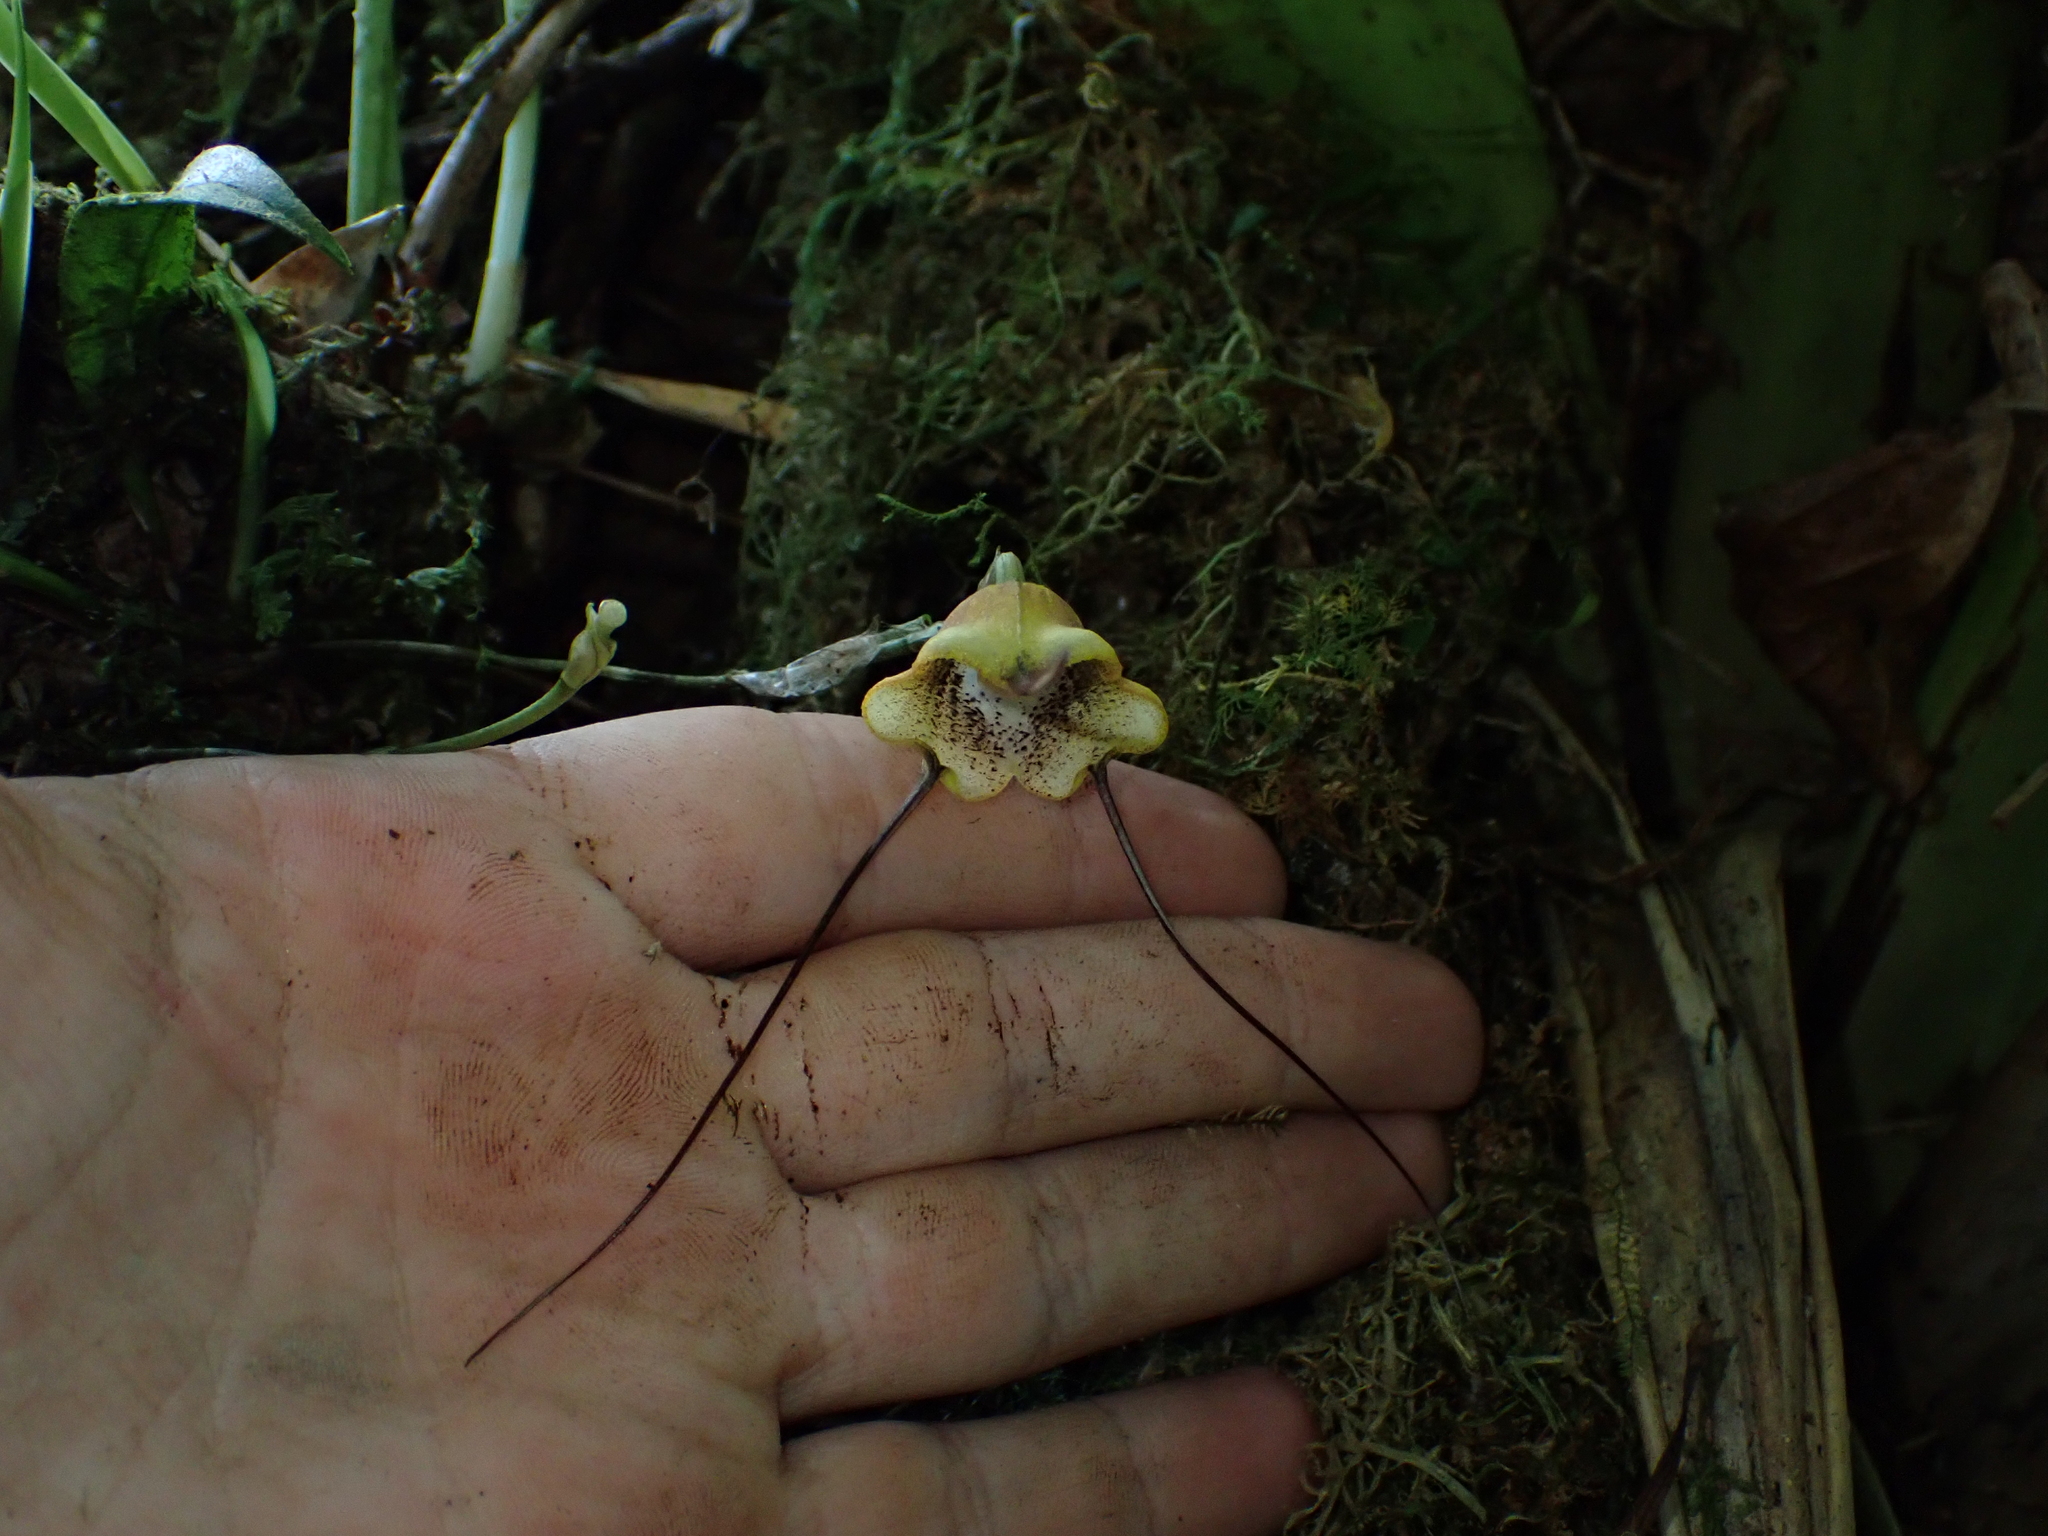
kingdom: Plantae
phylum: Tracheophyta
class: Liliopsida
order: Asparagales
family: Orchidaceae
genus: Dracula
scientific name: Dracula trigonopetala
